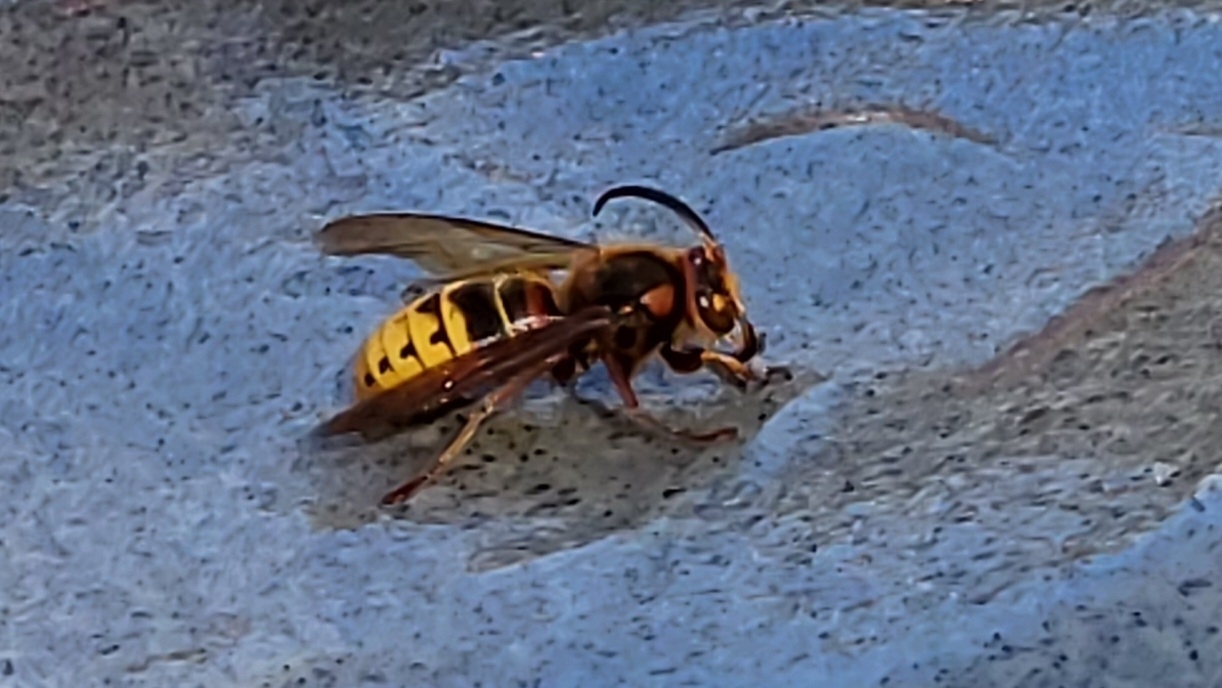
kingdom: Animalia
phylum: Arthropoda
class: Insecta
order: Hymenoptera
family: Vespidae
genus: Vespa
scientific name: Vespa crabro
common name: Hornet
